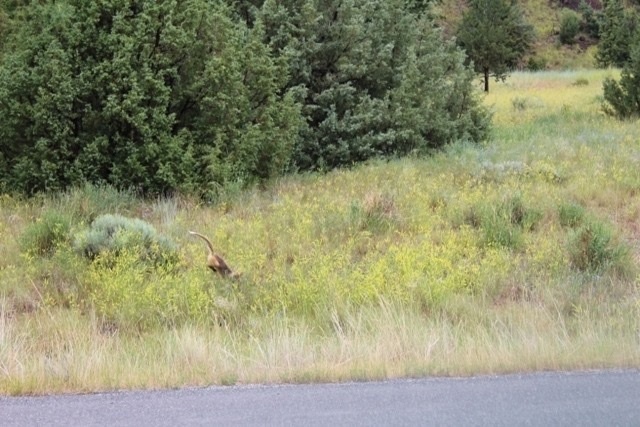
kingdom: Animalia
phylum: Chordata
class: Mammalia
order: Carnivora
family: Canidae
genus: Vulpes
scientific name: Vulpes vulpes
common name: Red fox
